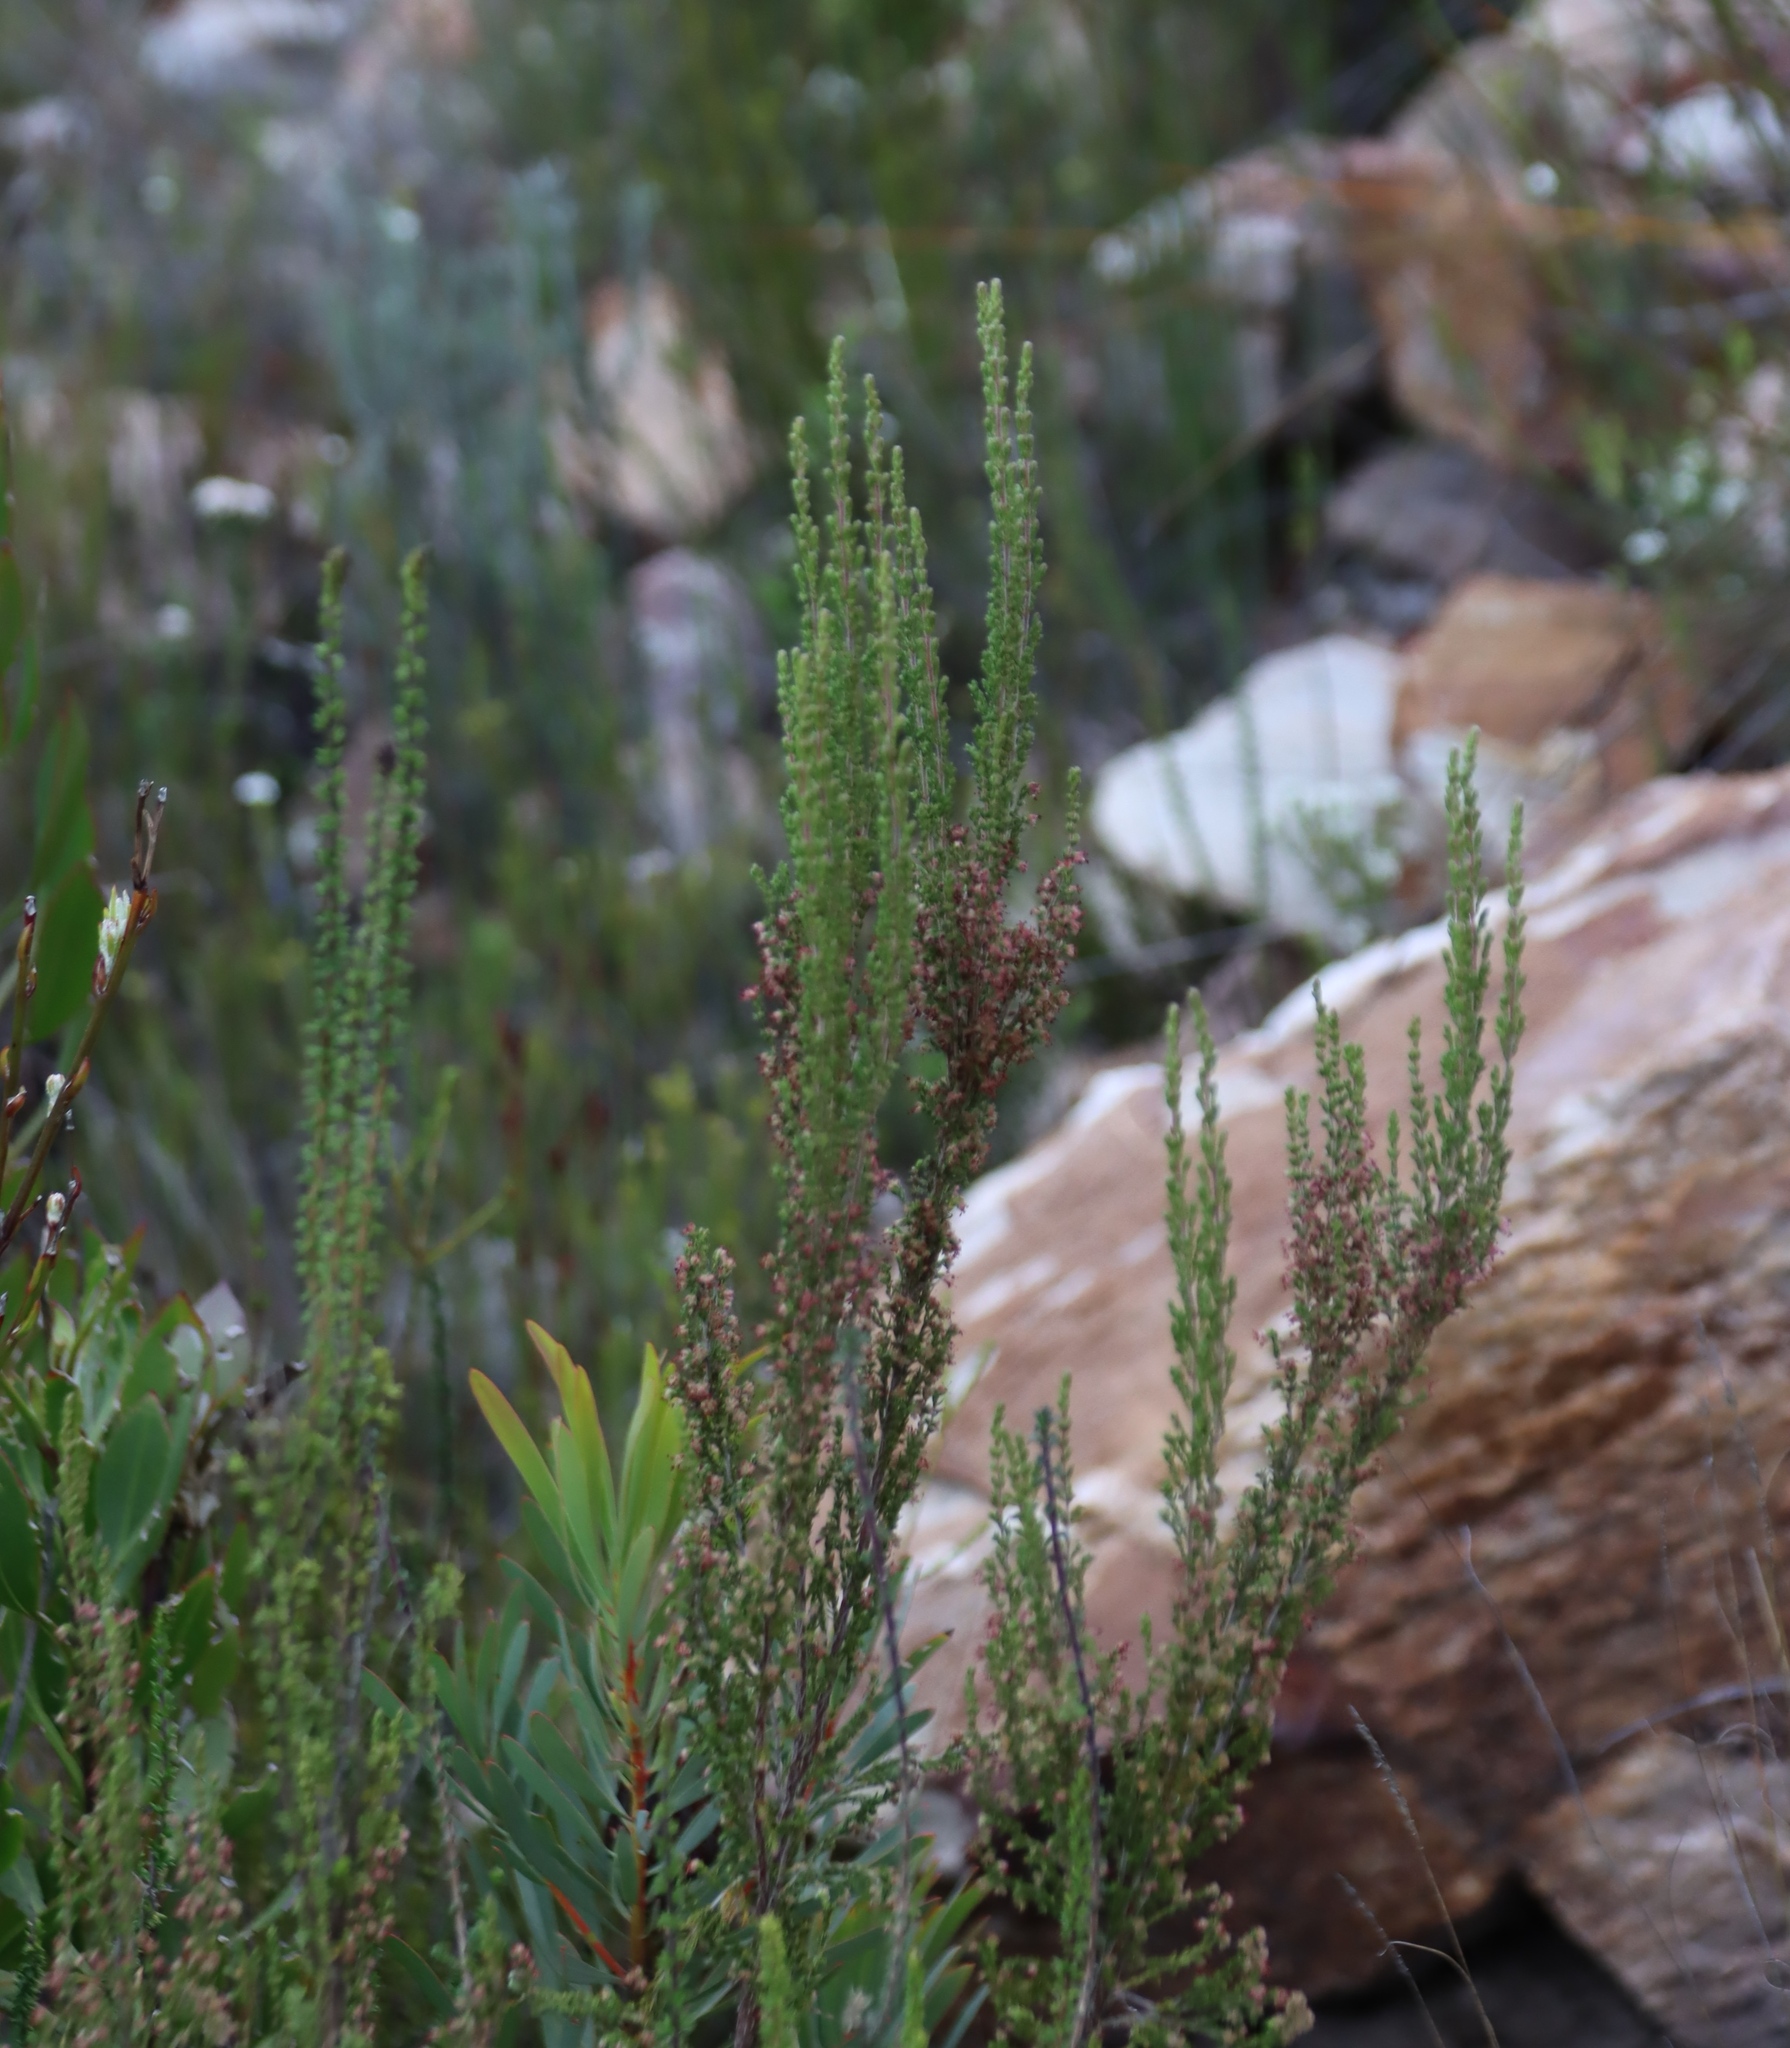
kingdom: Plantae
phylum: Tracheophyta
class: Magnoliopsida
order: Ericales
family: Ericaceae
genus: Erica
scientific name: Erica angulosa
